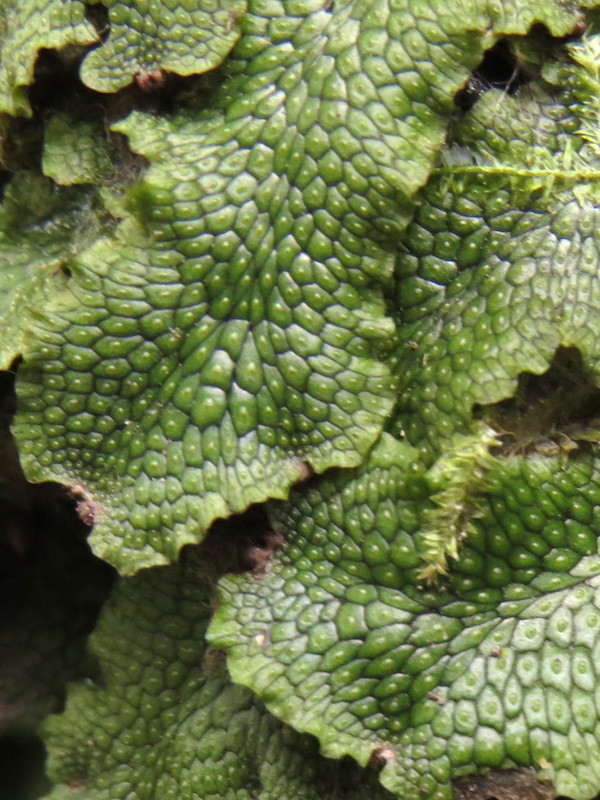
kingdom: Plantae
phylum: Marchantiophyta
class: Marchantiopsida
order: Marchantiales
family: Conocephalaceae
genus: Conocephalum
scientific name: Conocephalum salebrosum
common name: Cat-tongue liverwort
